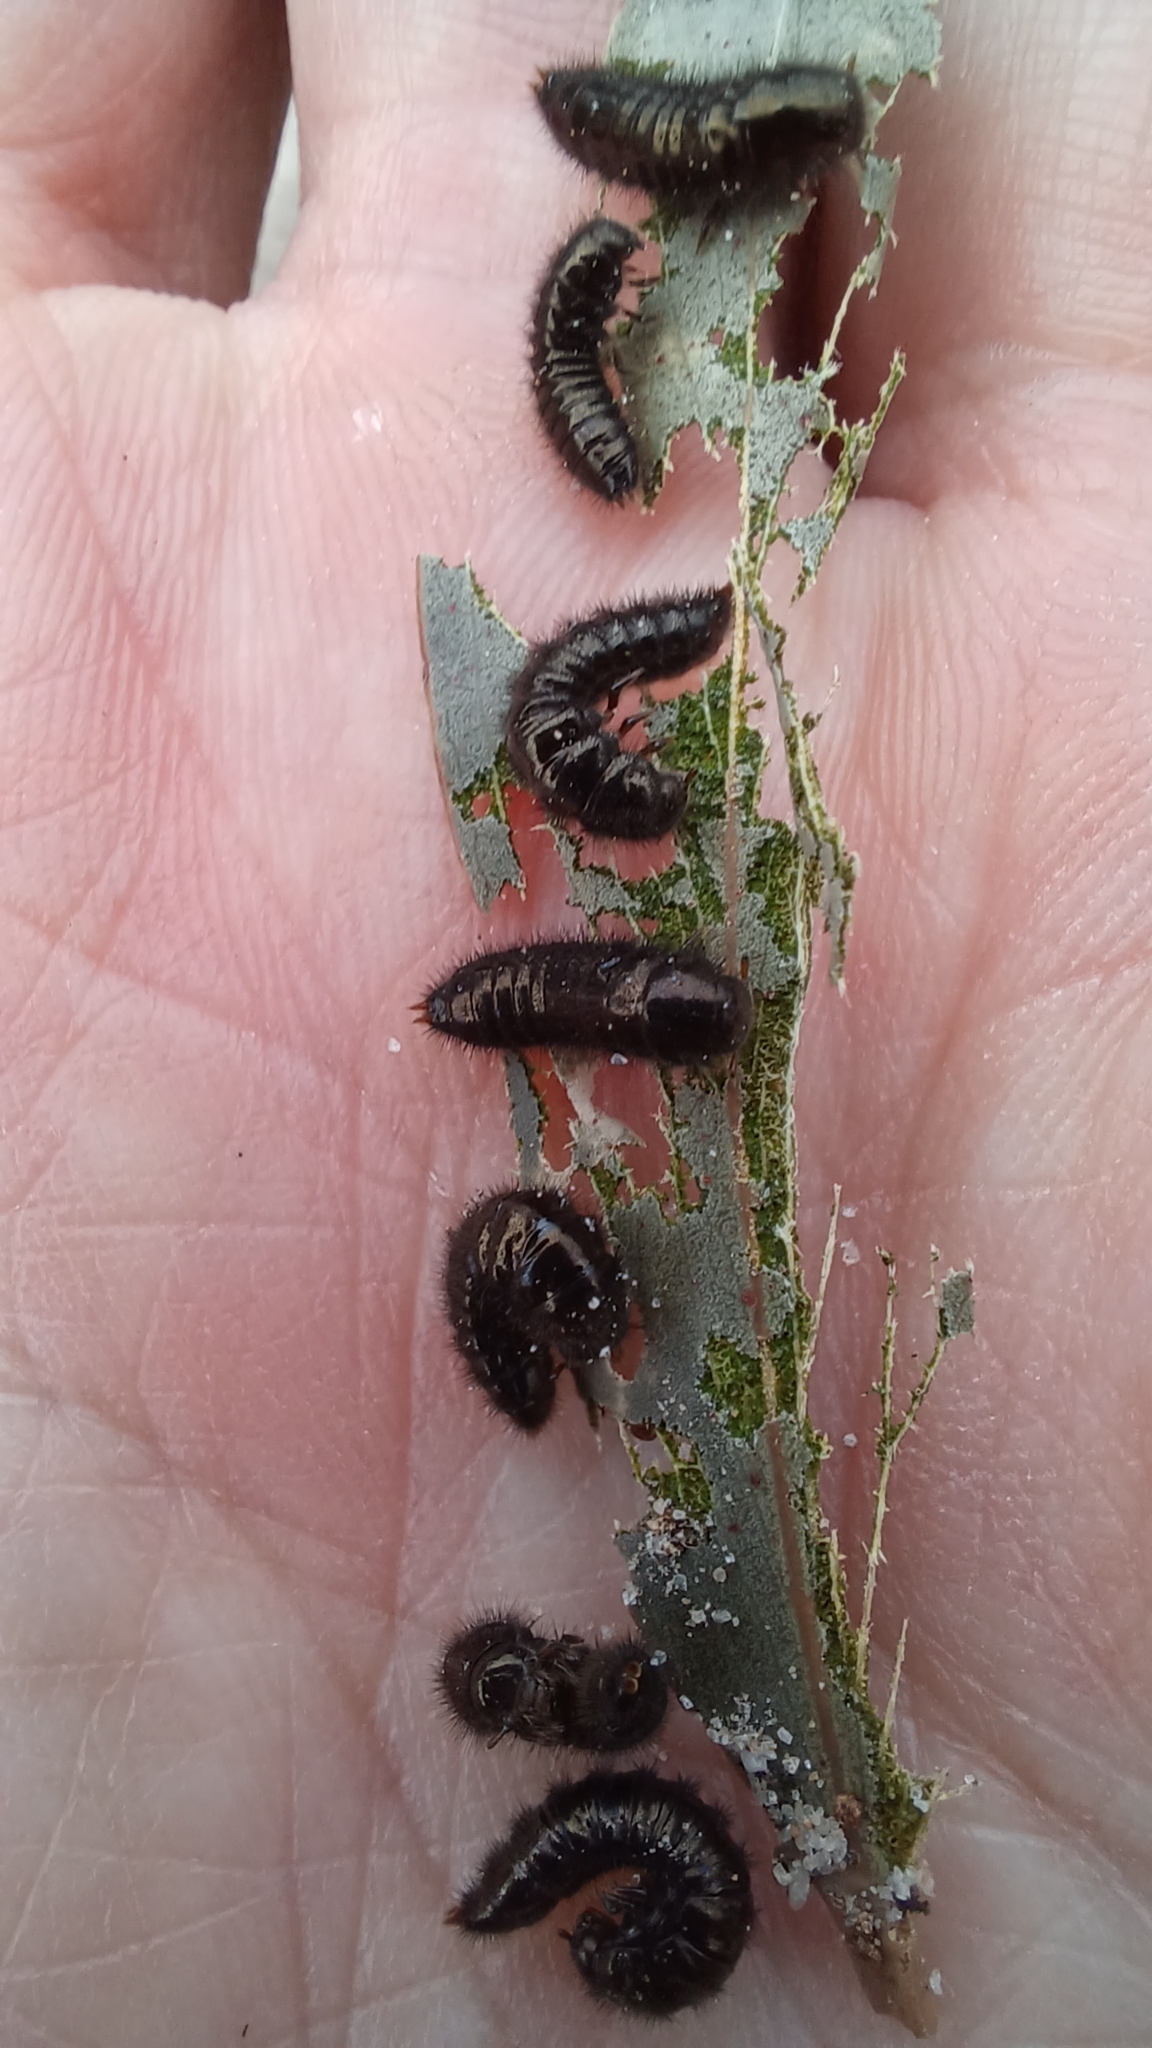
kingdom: Animalia
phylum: Arthropoda
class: Insecta
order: Coleoptera
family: Tenebrionidae
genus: Ecnolagria
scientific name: Ecnolagria
